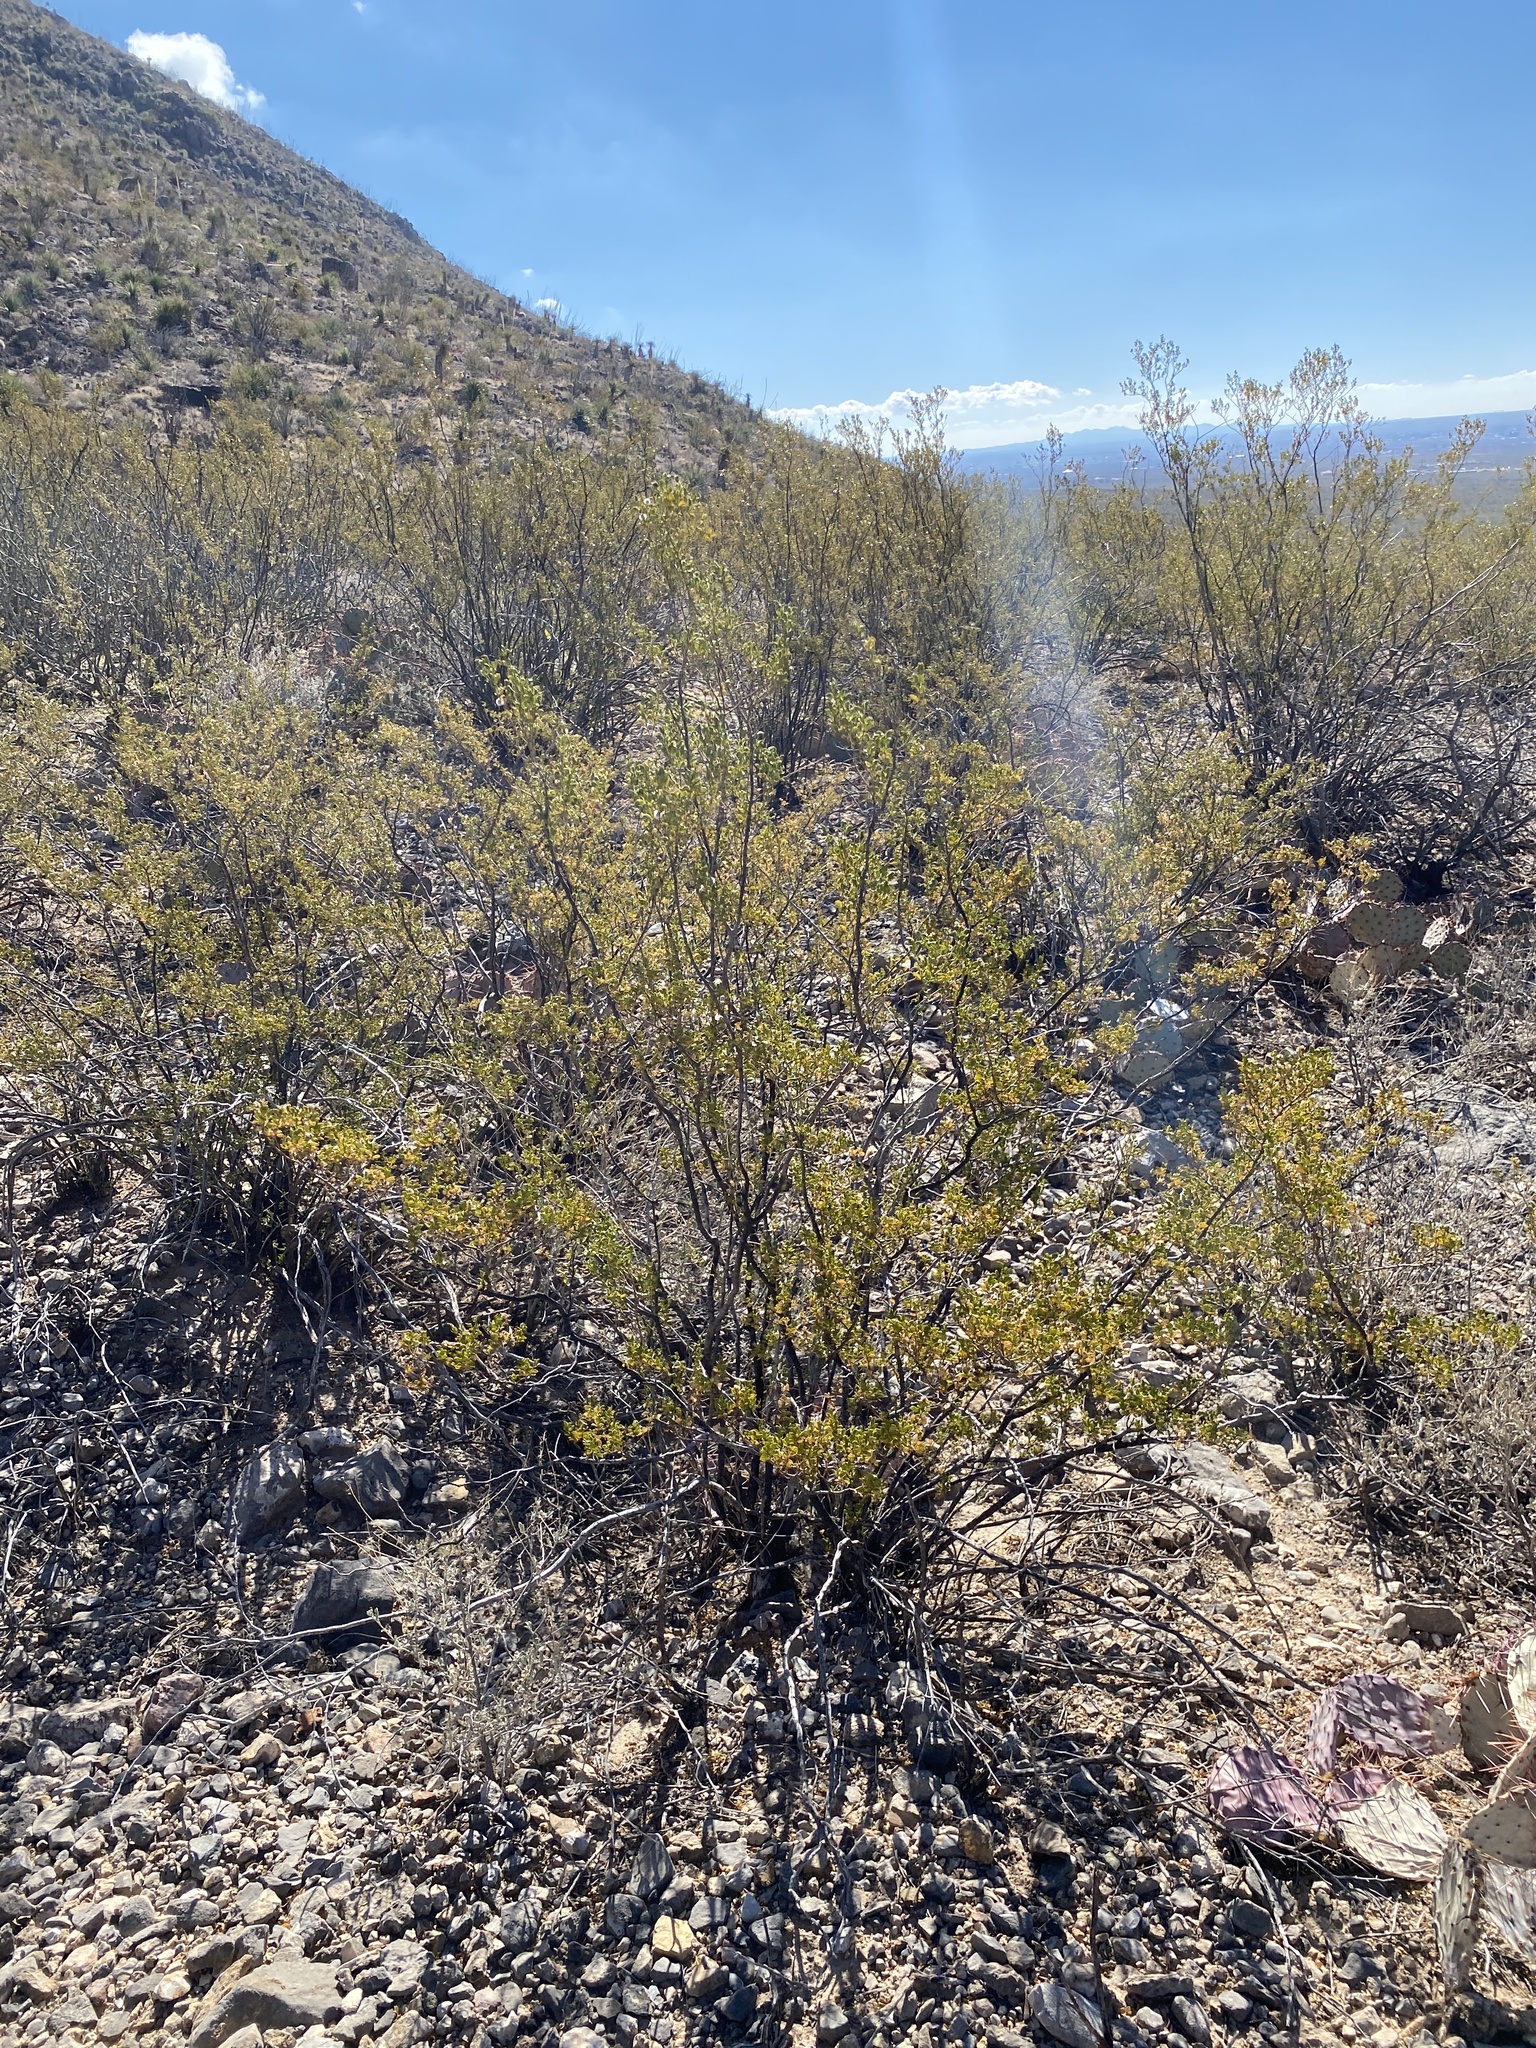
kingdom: Plantae
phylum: Tracheophyta
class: Magnoliopsida
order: Zygophyllales
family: Zygophyllaceae
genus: Larrea
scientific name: Larrea tridentata
